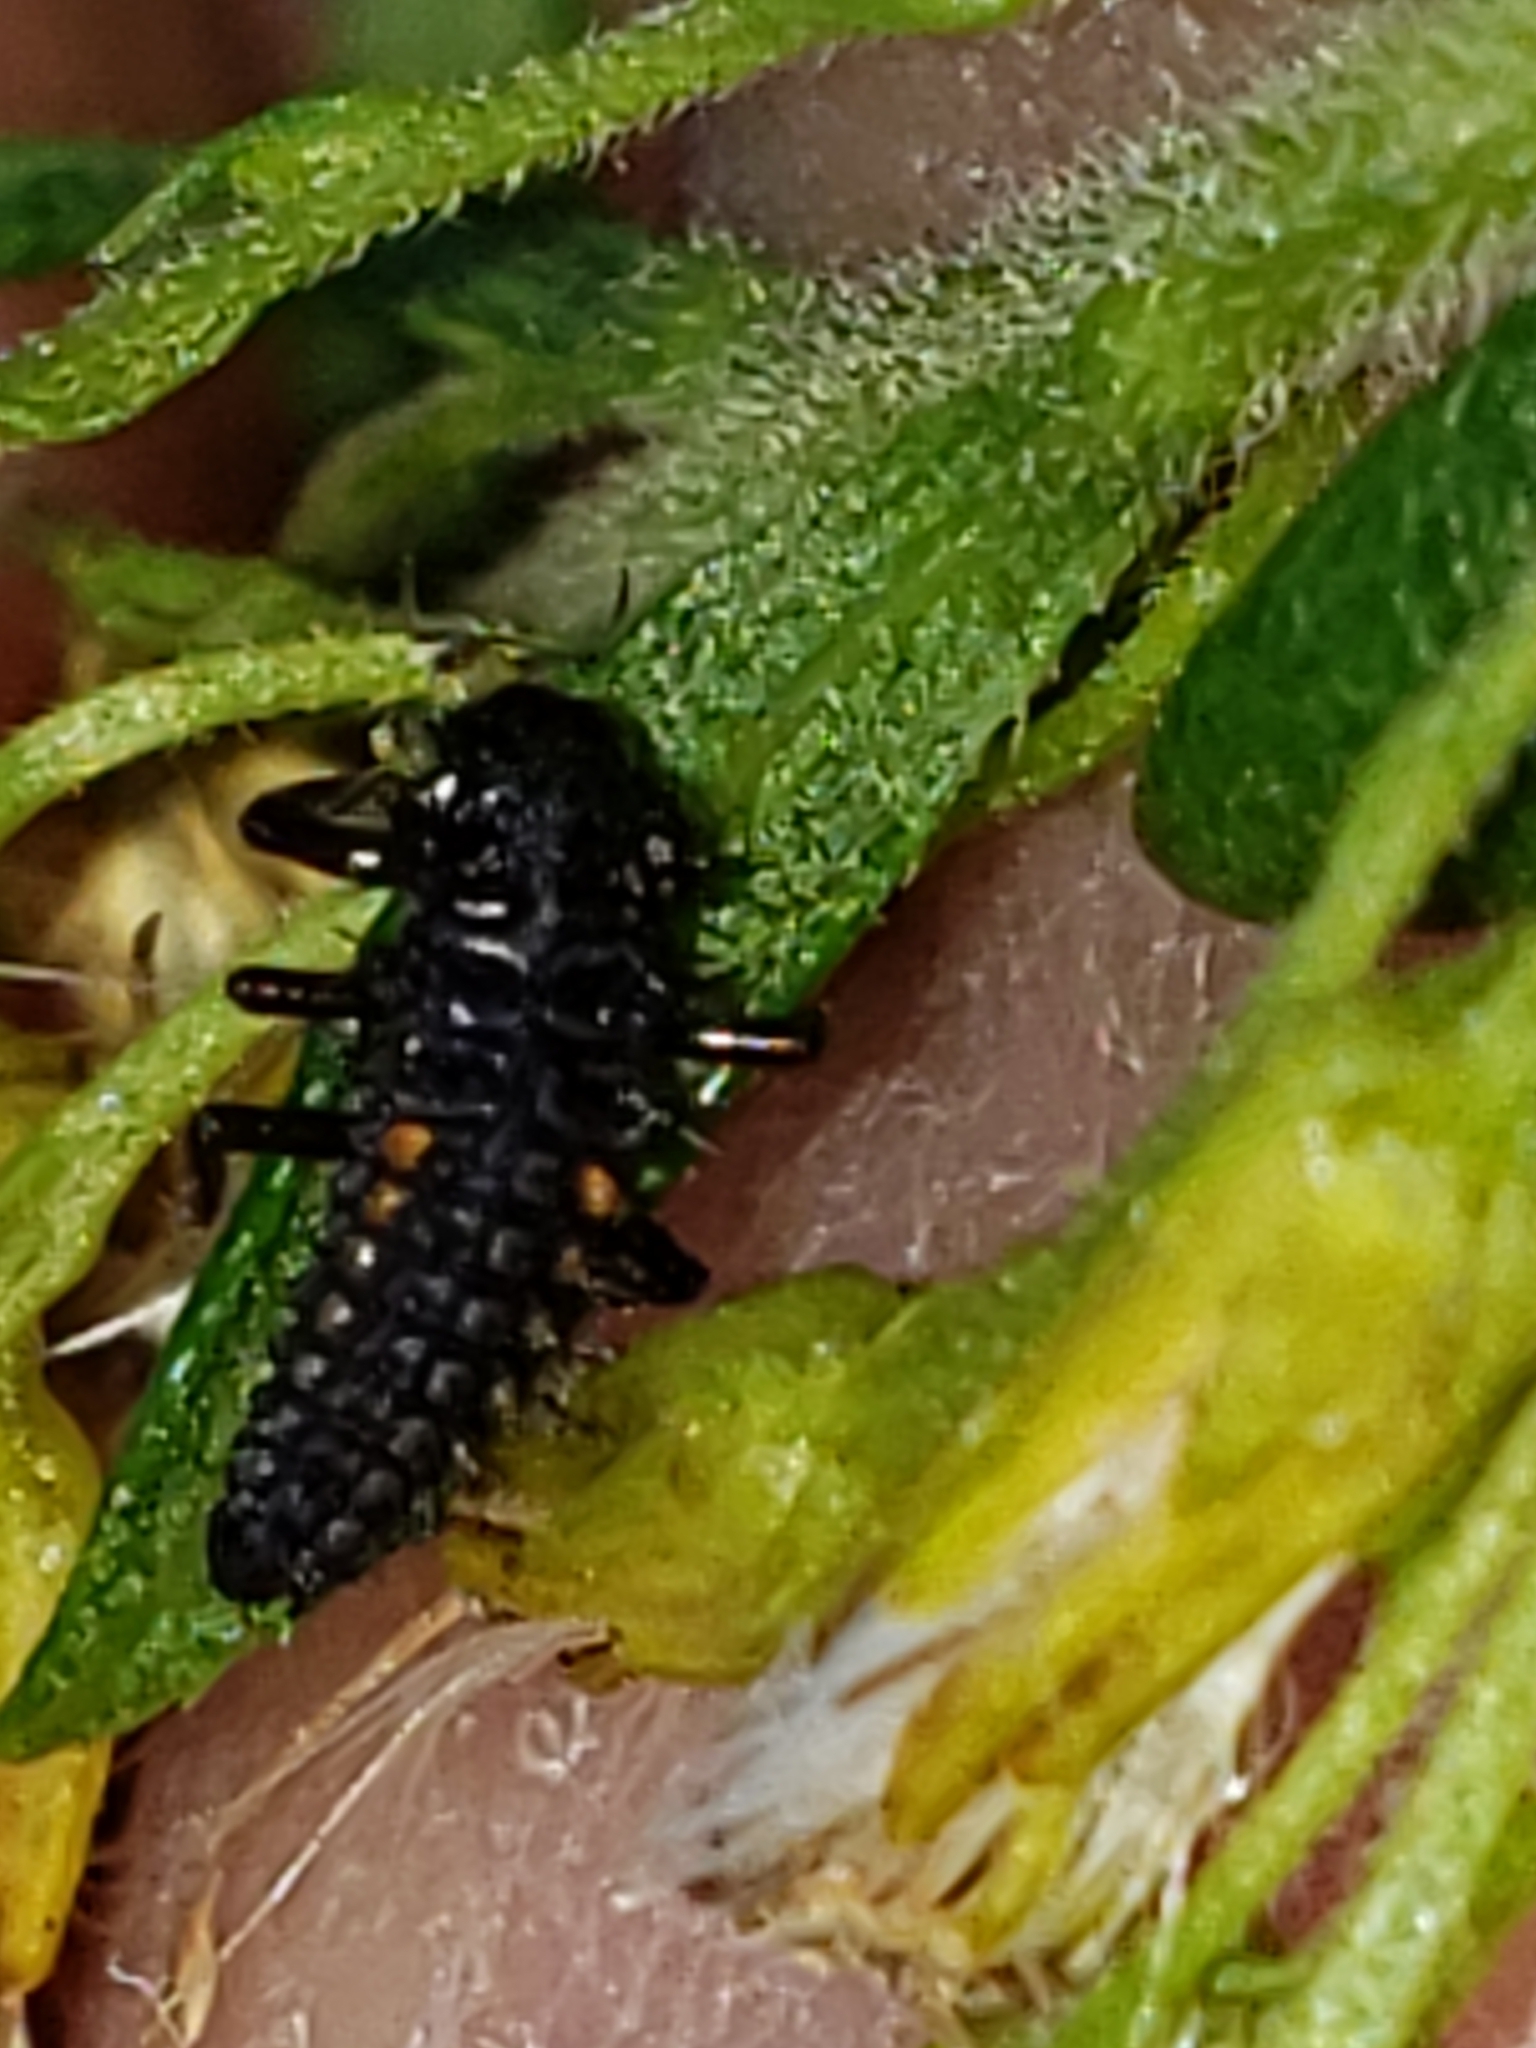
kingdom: Animalia
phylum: Arthropoda
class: Insecta
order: Coleoptera
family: Coccinellidae
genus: Harmonia
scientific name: Harmonia axyridis
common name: Harlequin ladybird
